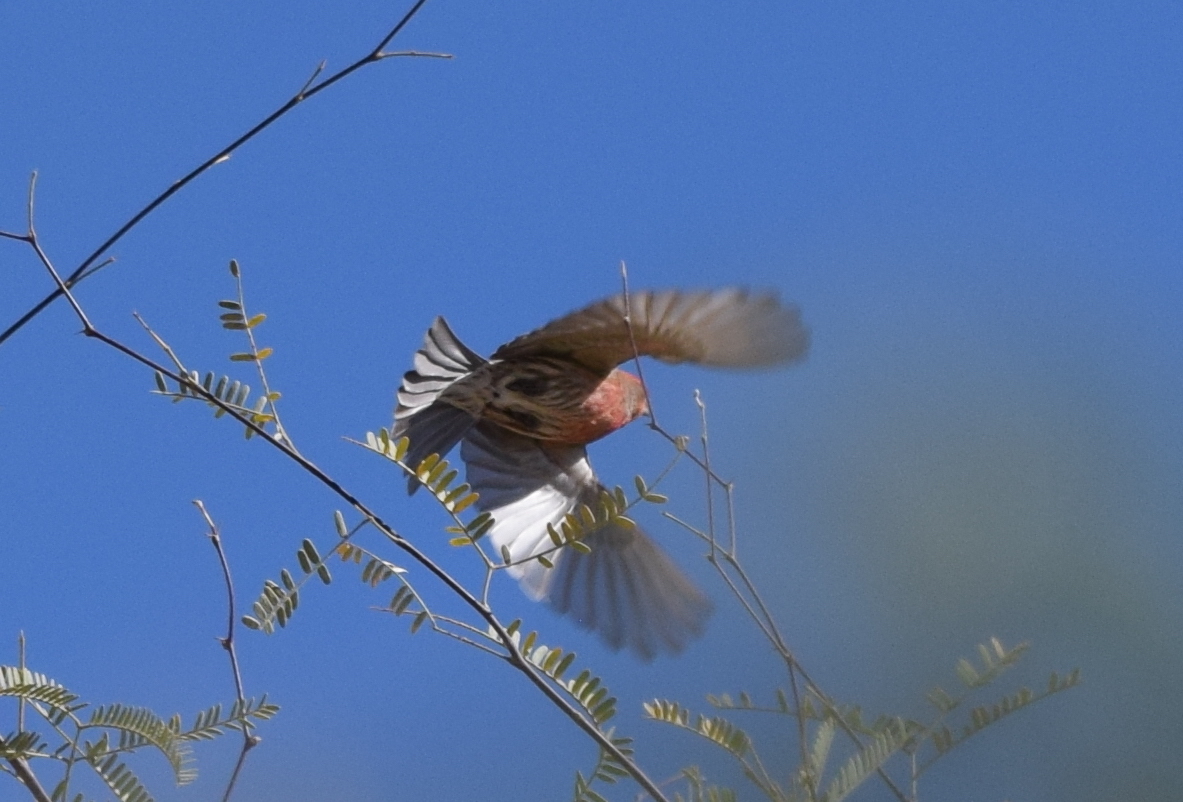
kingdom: Animalia
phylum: Chordata
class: Aves
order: Passeriformes
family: Fringillidae
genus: Haemorhous
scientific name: Haemorhous mexicanus
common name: House finch
